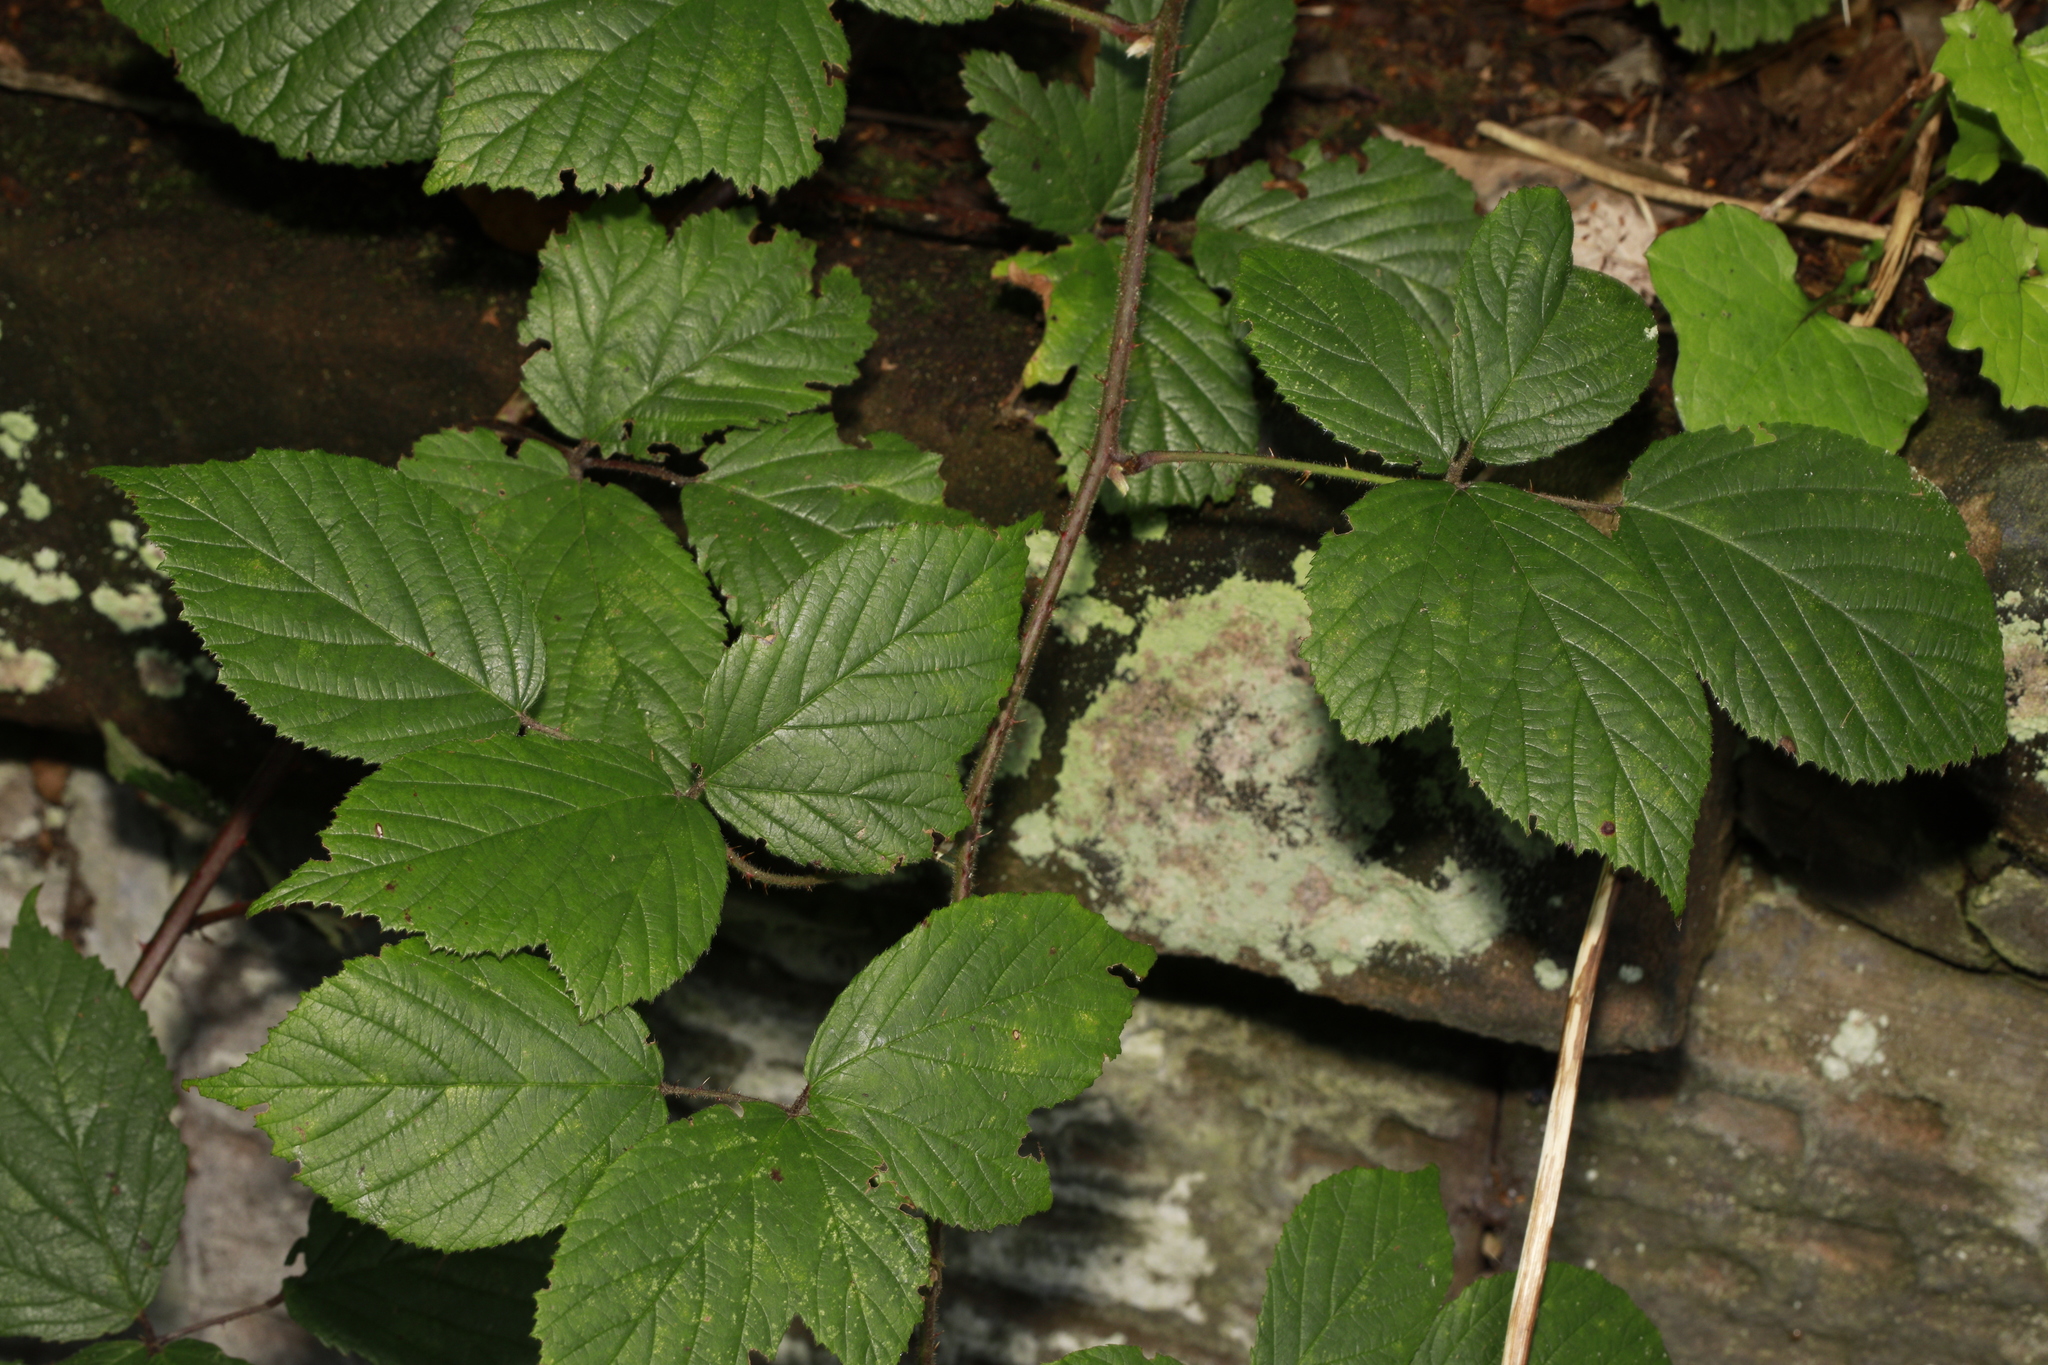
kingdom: Plantae
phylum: Tracheophyta
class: Magnoliopsida
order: Rosales
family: Rosaceae
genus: Rubus
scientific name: Rubus dasyphyllus
